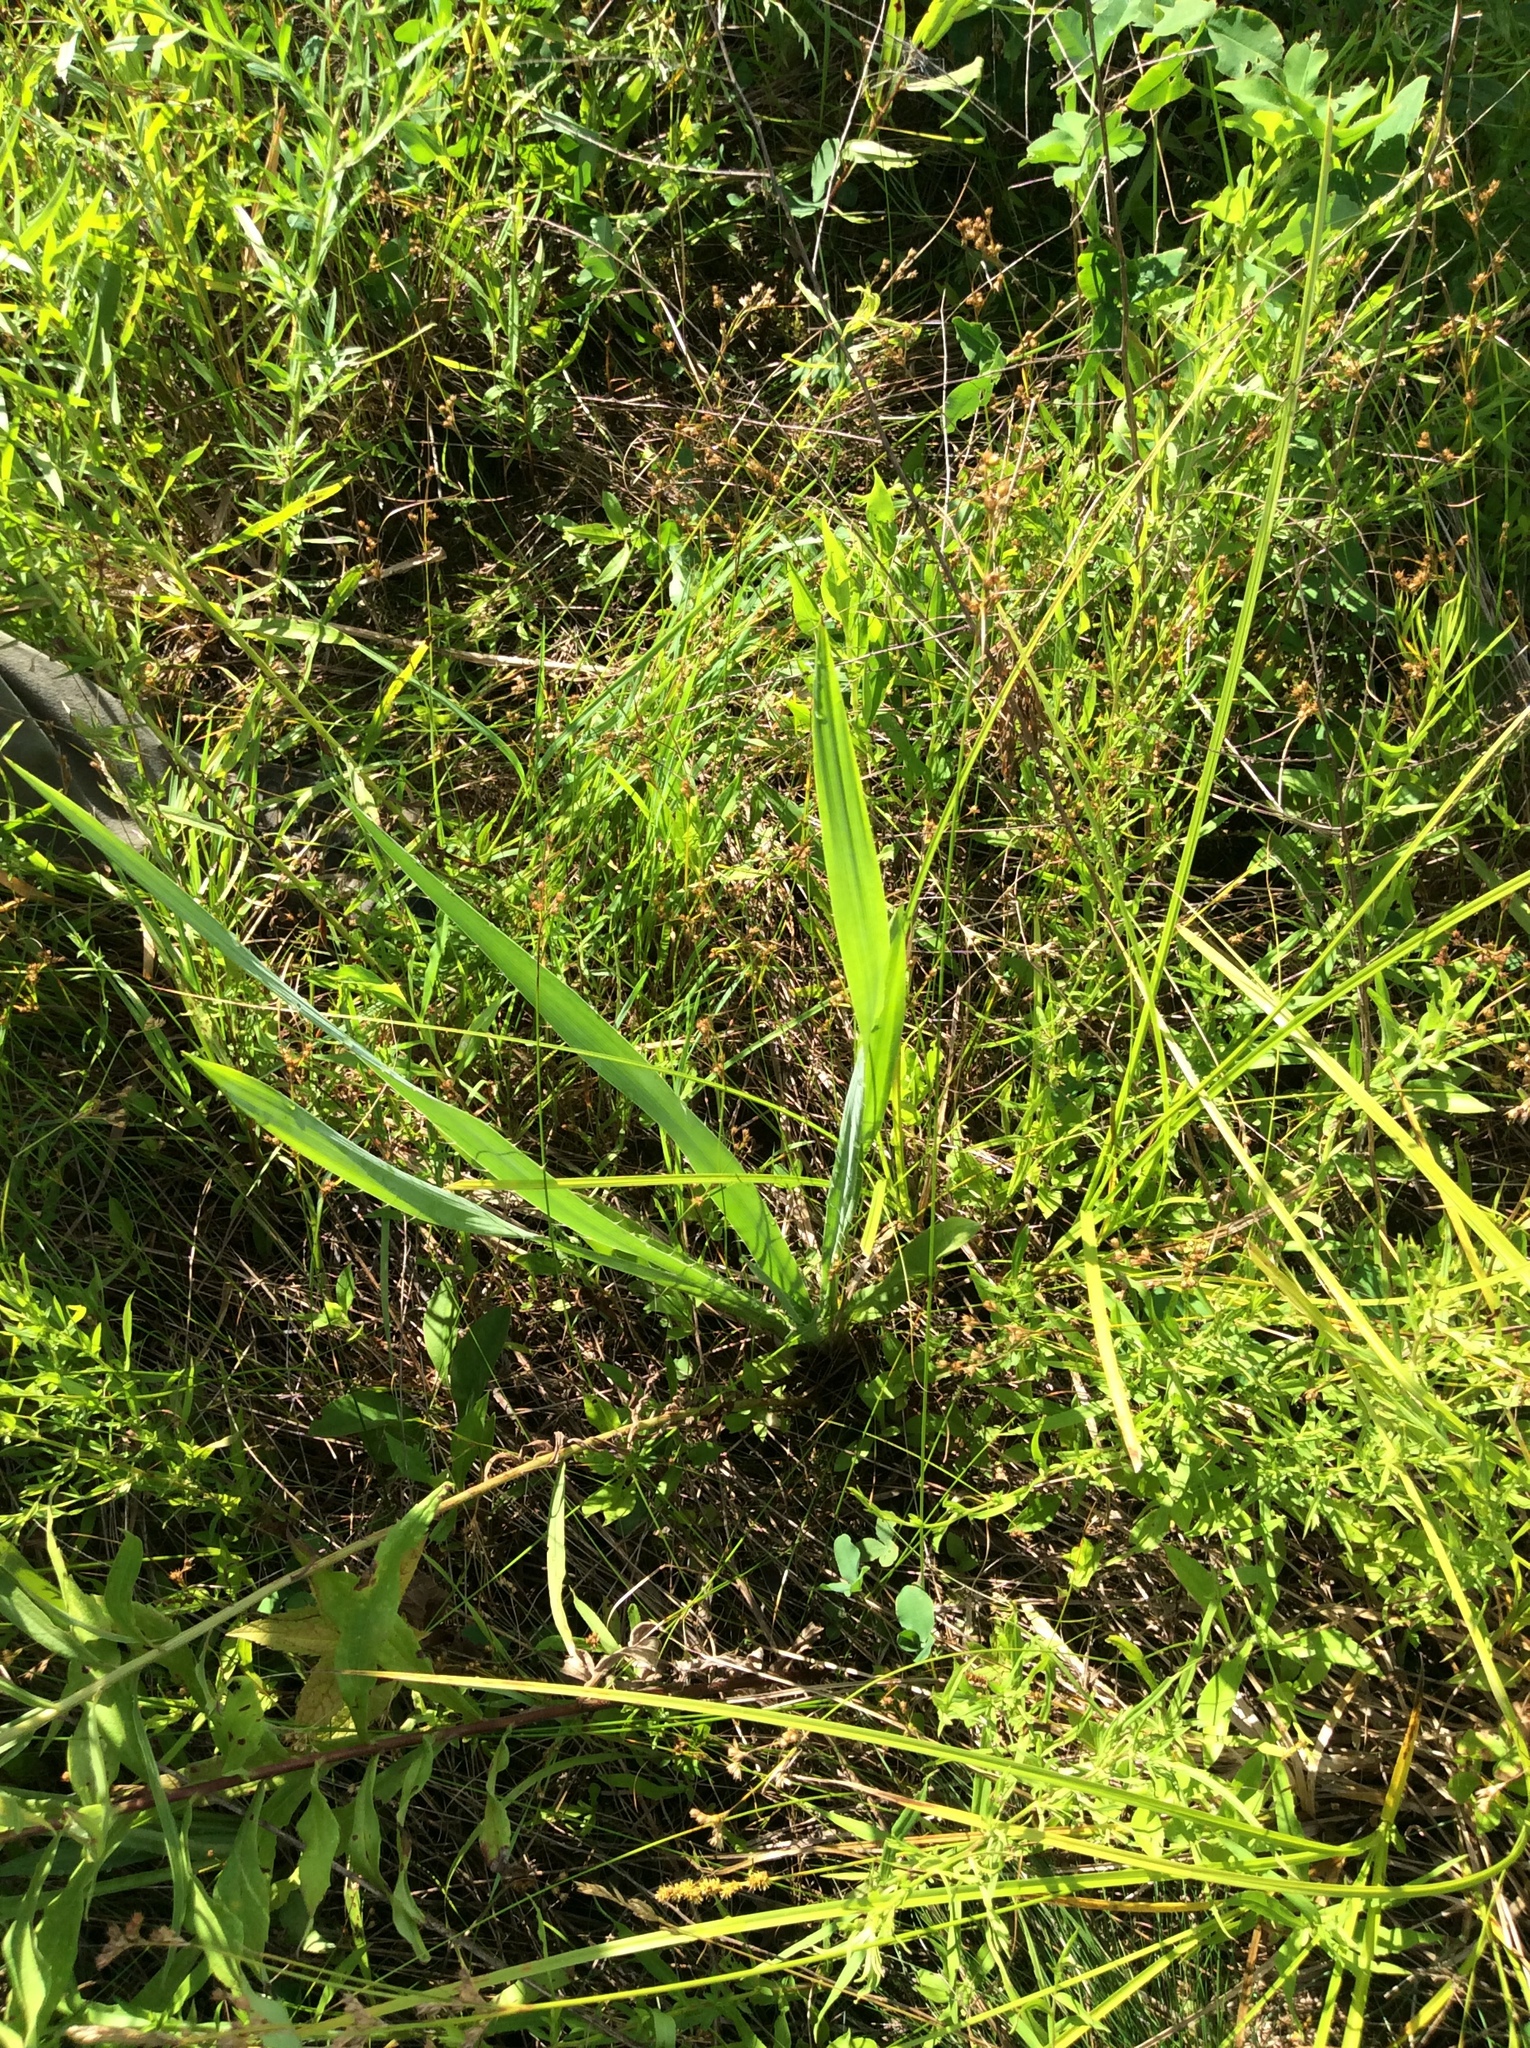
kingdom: Plantae
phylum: Tracheophyta
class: Magnoliopsida
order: Apiales
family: Apiaceae
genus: Eryngium
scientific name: Eryngium yuccifolium
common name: Button eryngo
